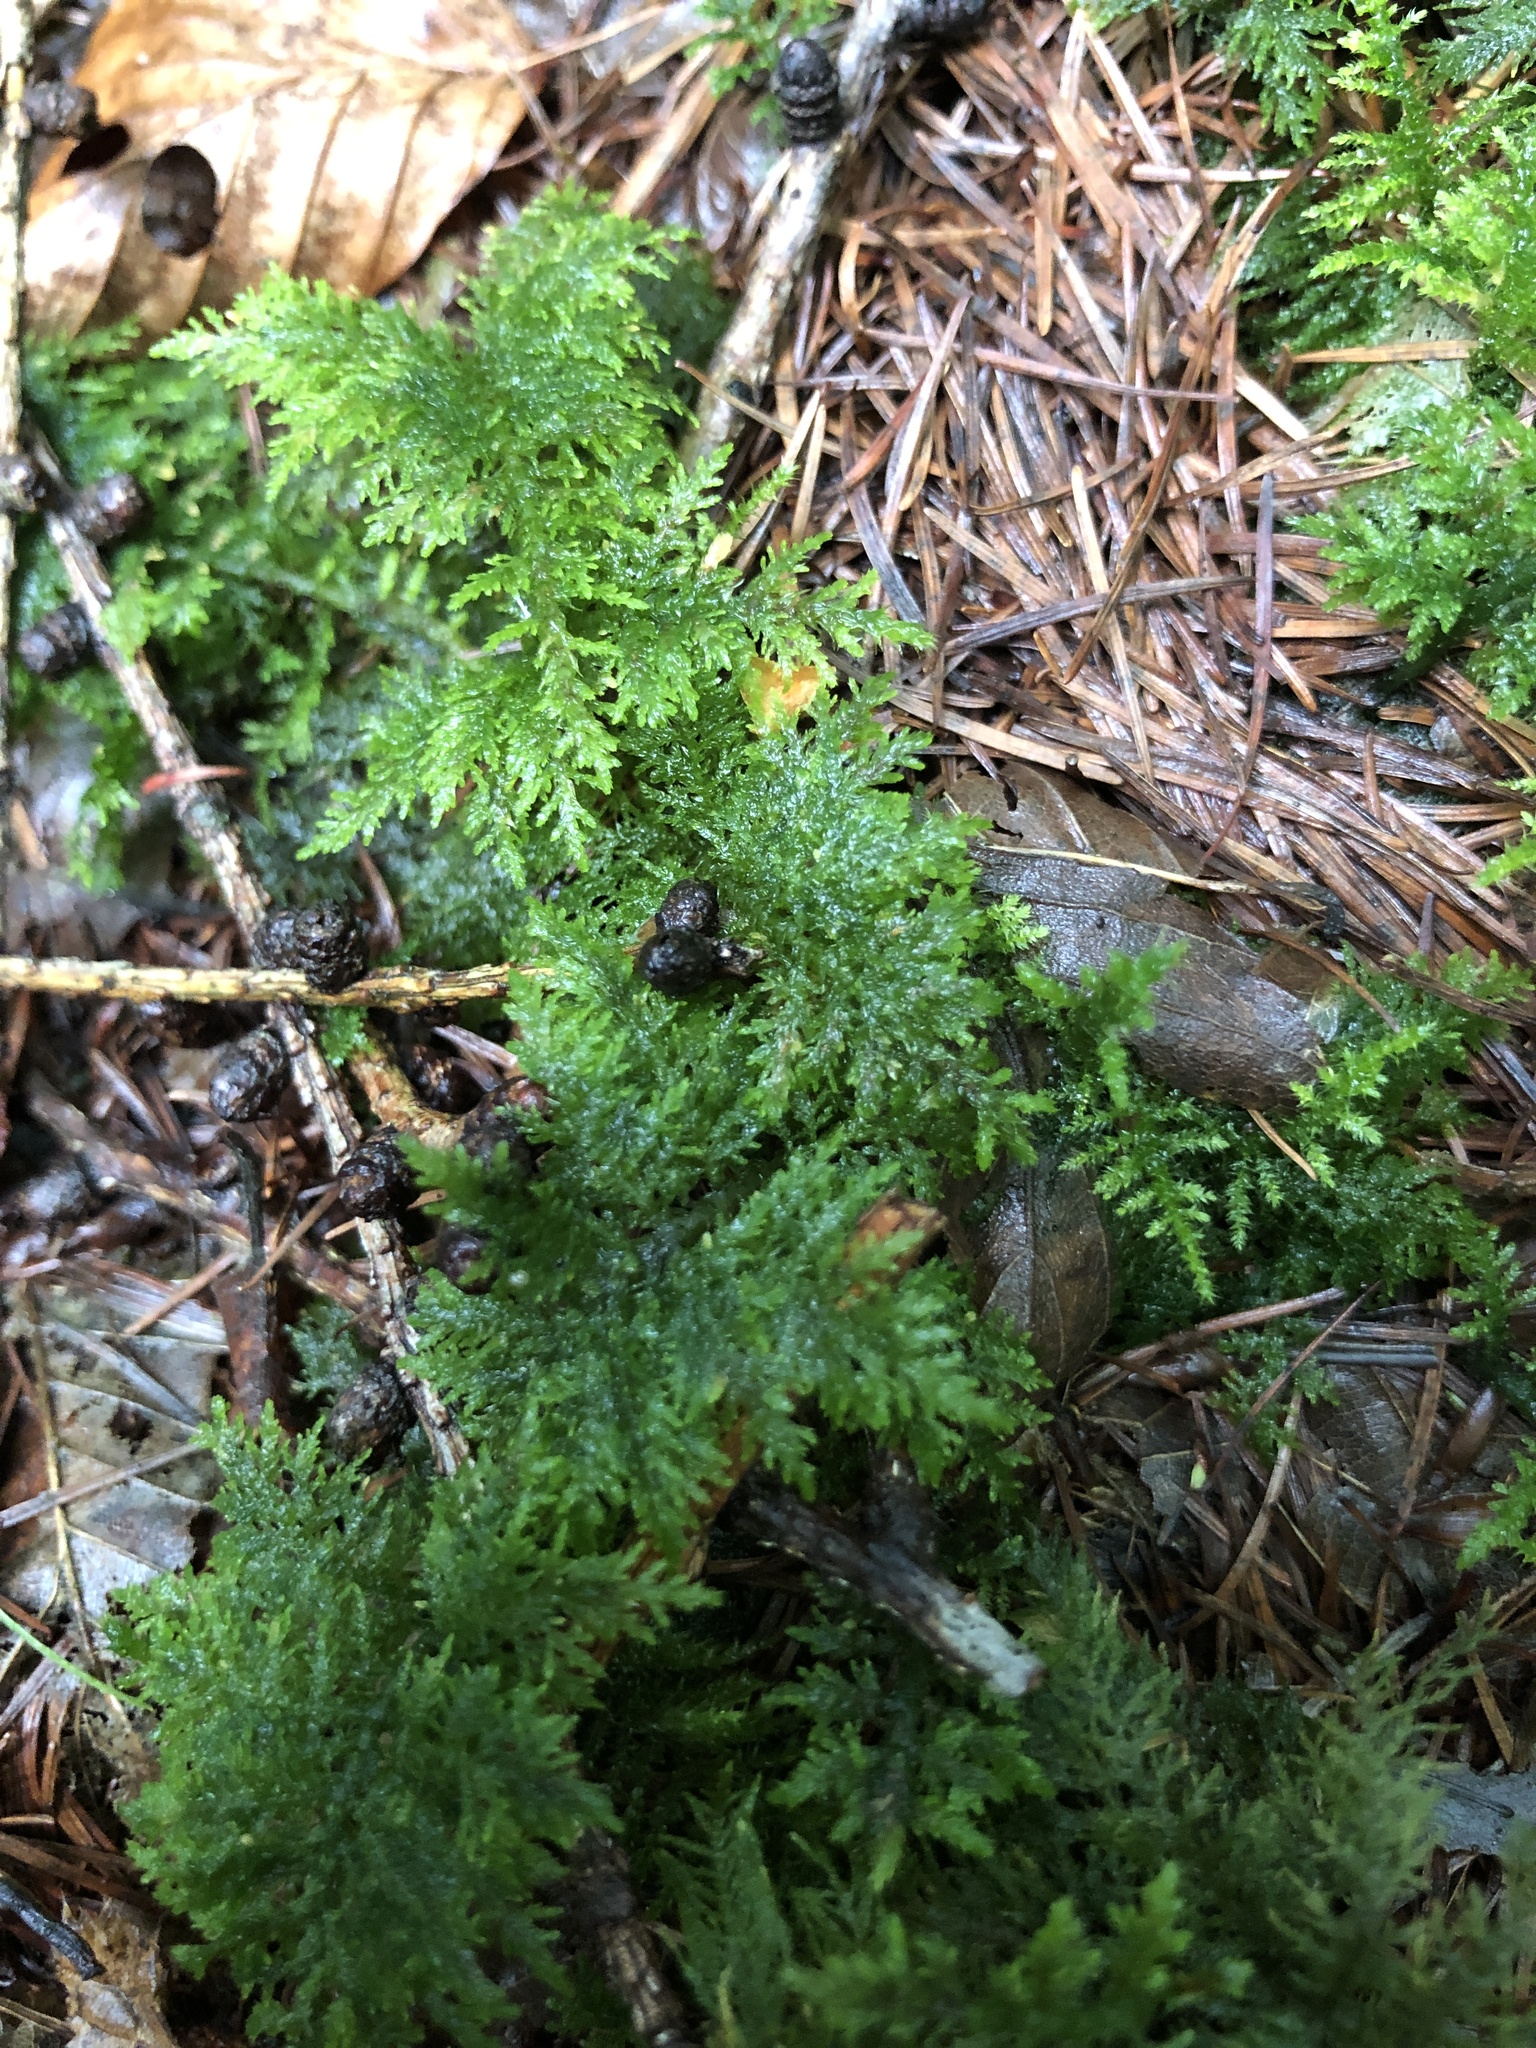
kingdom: Plantae
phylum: Bryophyta
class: Bryopsida
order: Hypnales
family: Thuidiaceae
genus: Thuidium
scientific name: Thuidium tamariscinum
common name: Common tamarisk-moss
